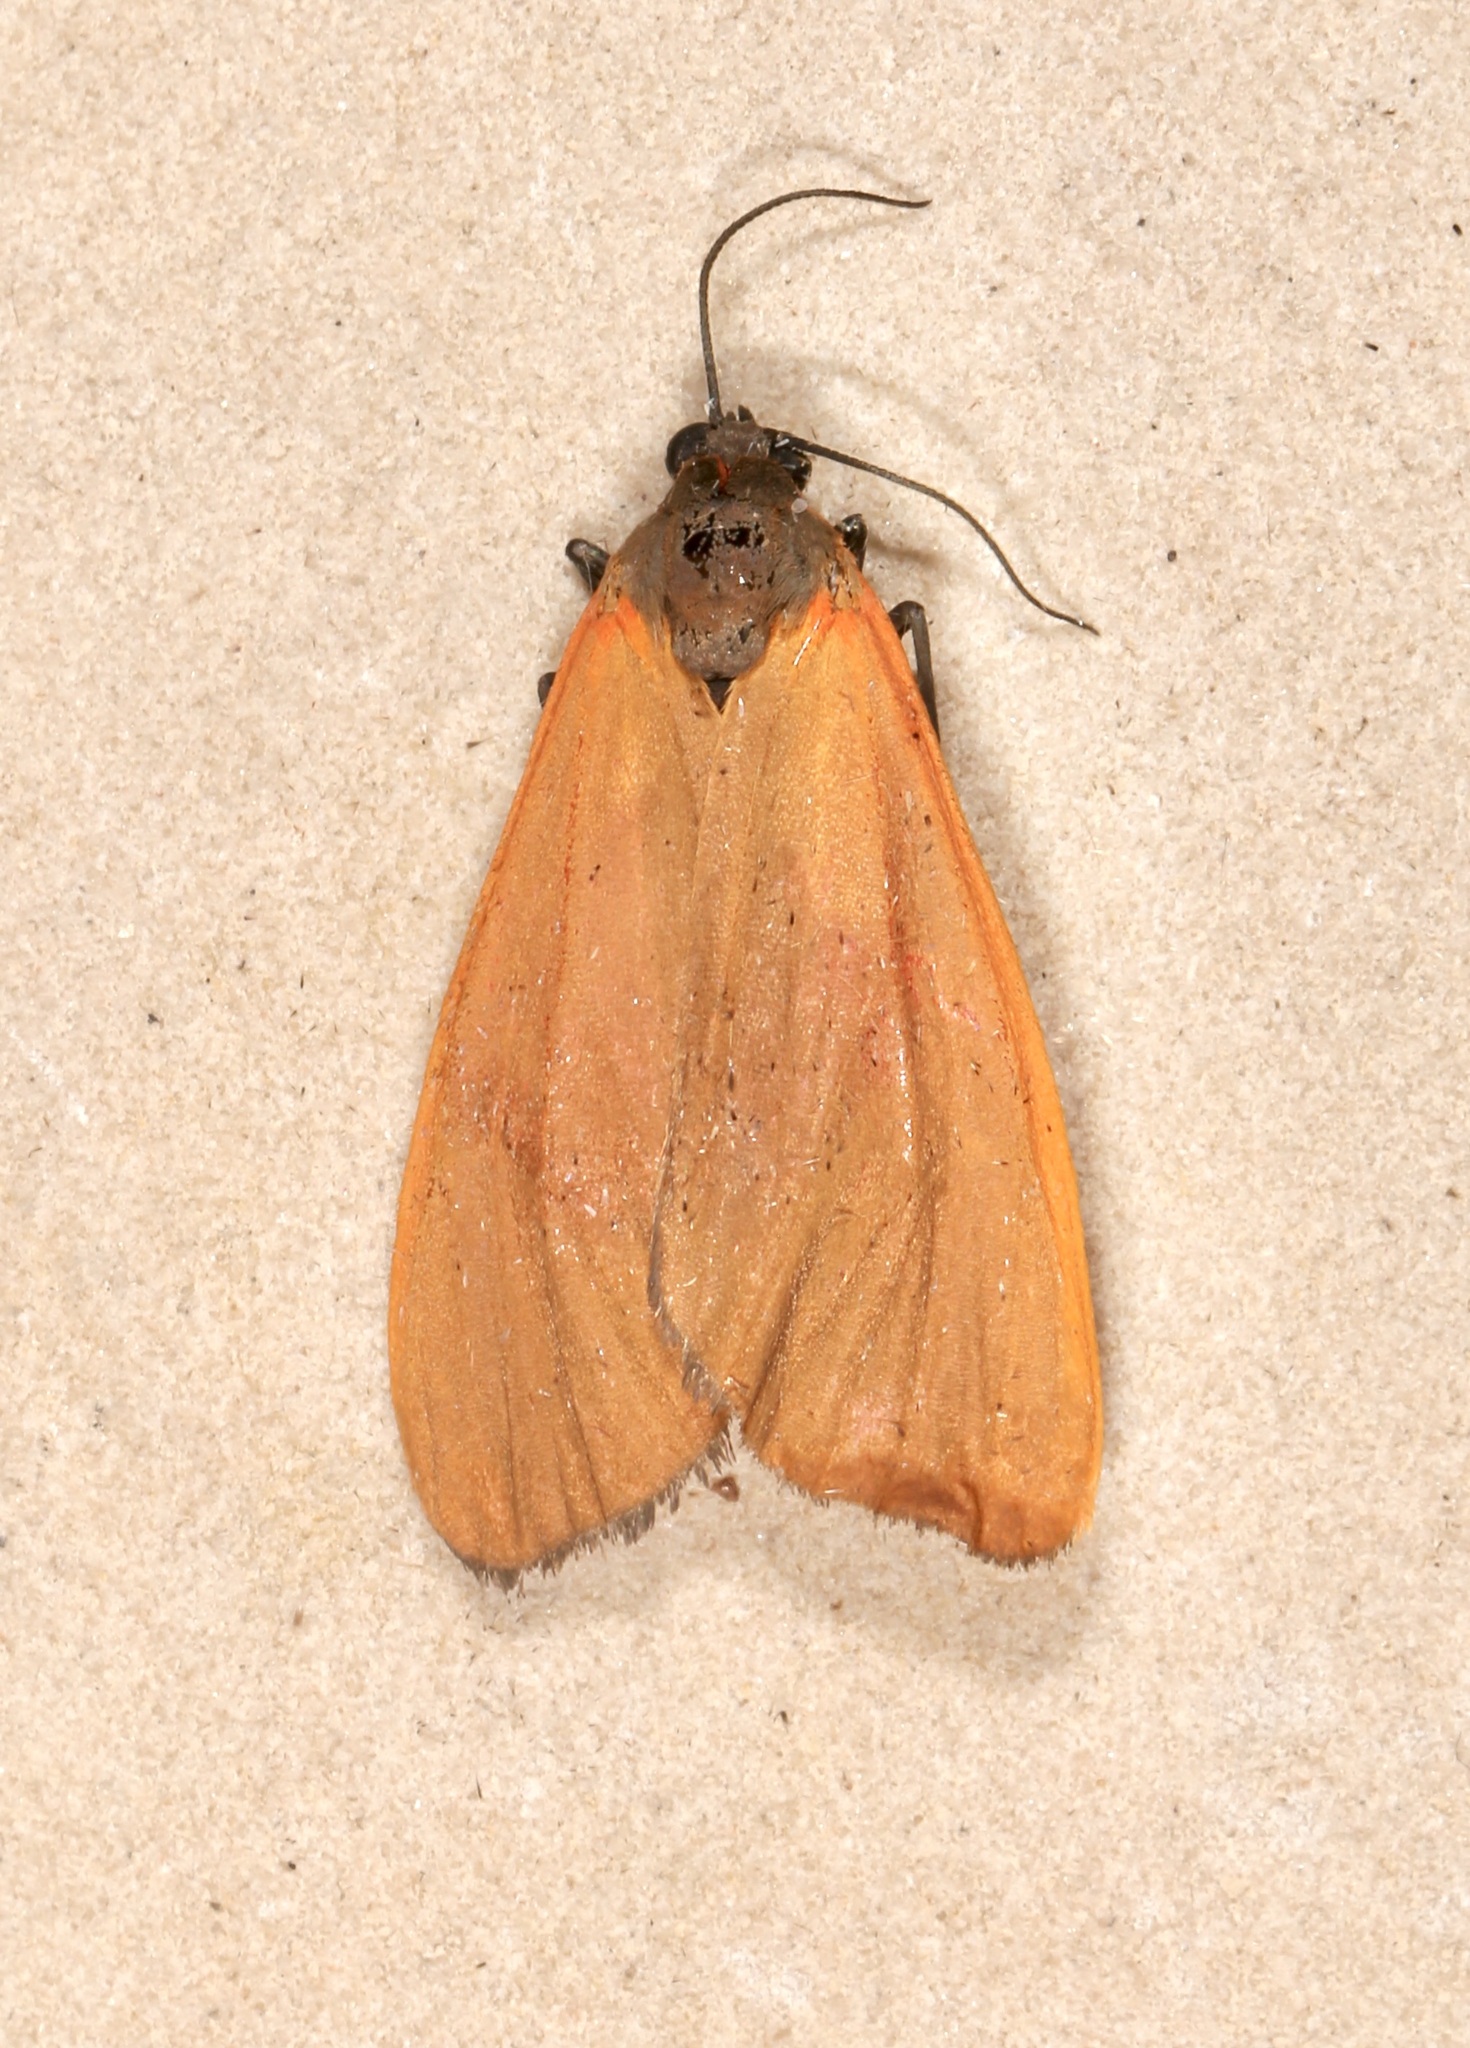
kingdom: Animalia
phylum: Arthropoda
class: Insecta
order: Lepidoptera
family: Erebidae
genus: Virbia
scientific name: Virbia ostenta
